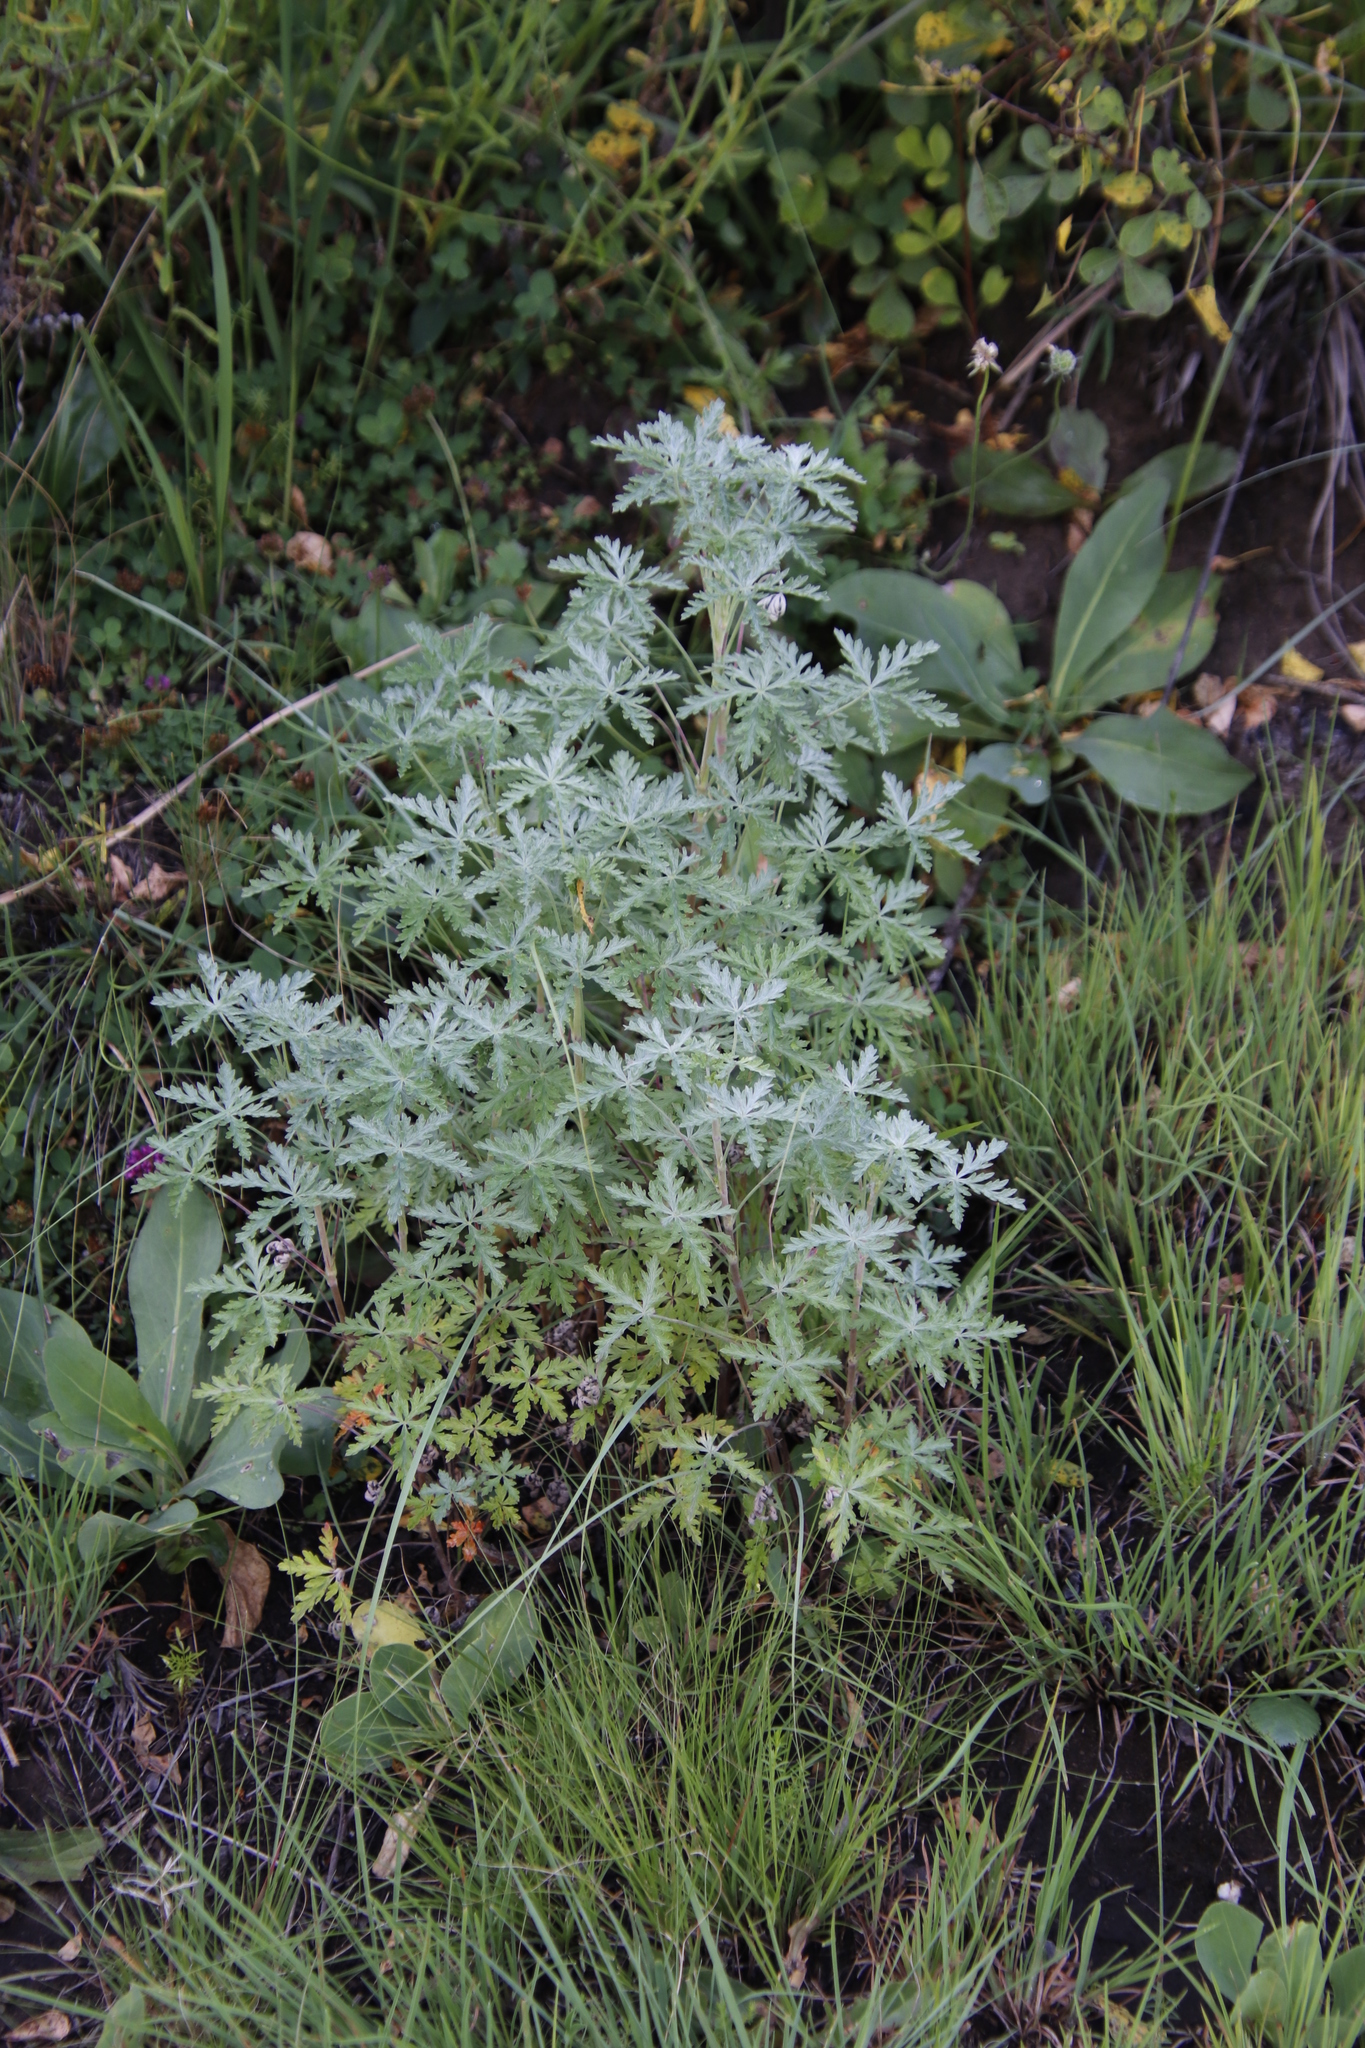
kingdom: Plantae
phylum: Tracheophyta
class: Magnoliopsida
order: Geraniales
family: Geraniaceae
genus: Geranium
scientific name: Geranium robustum
